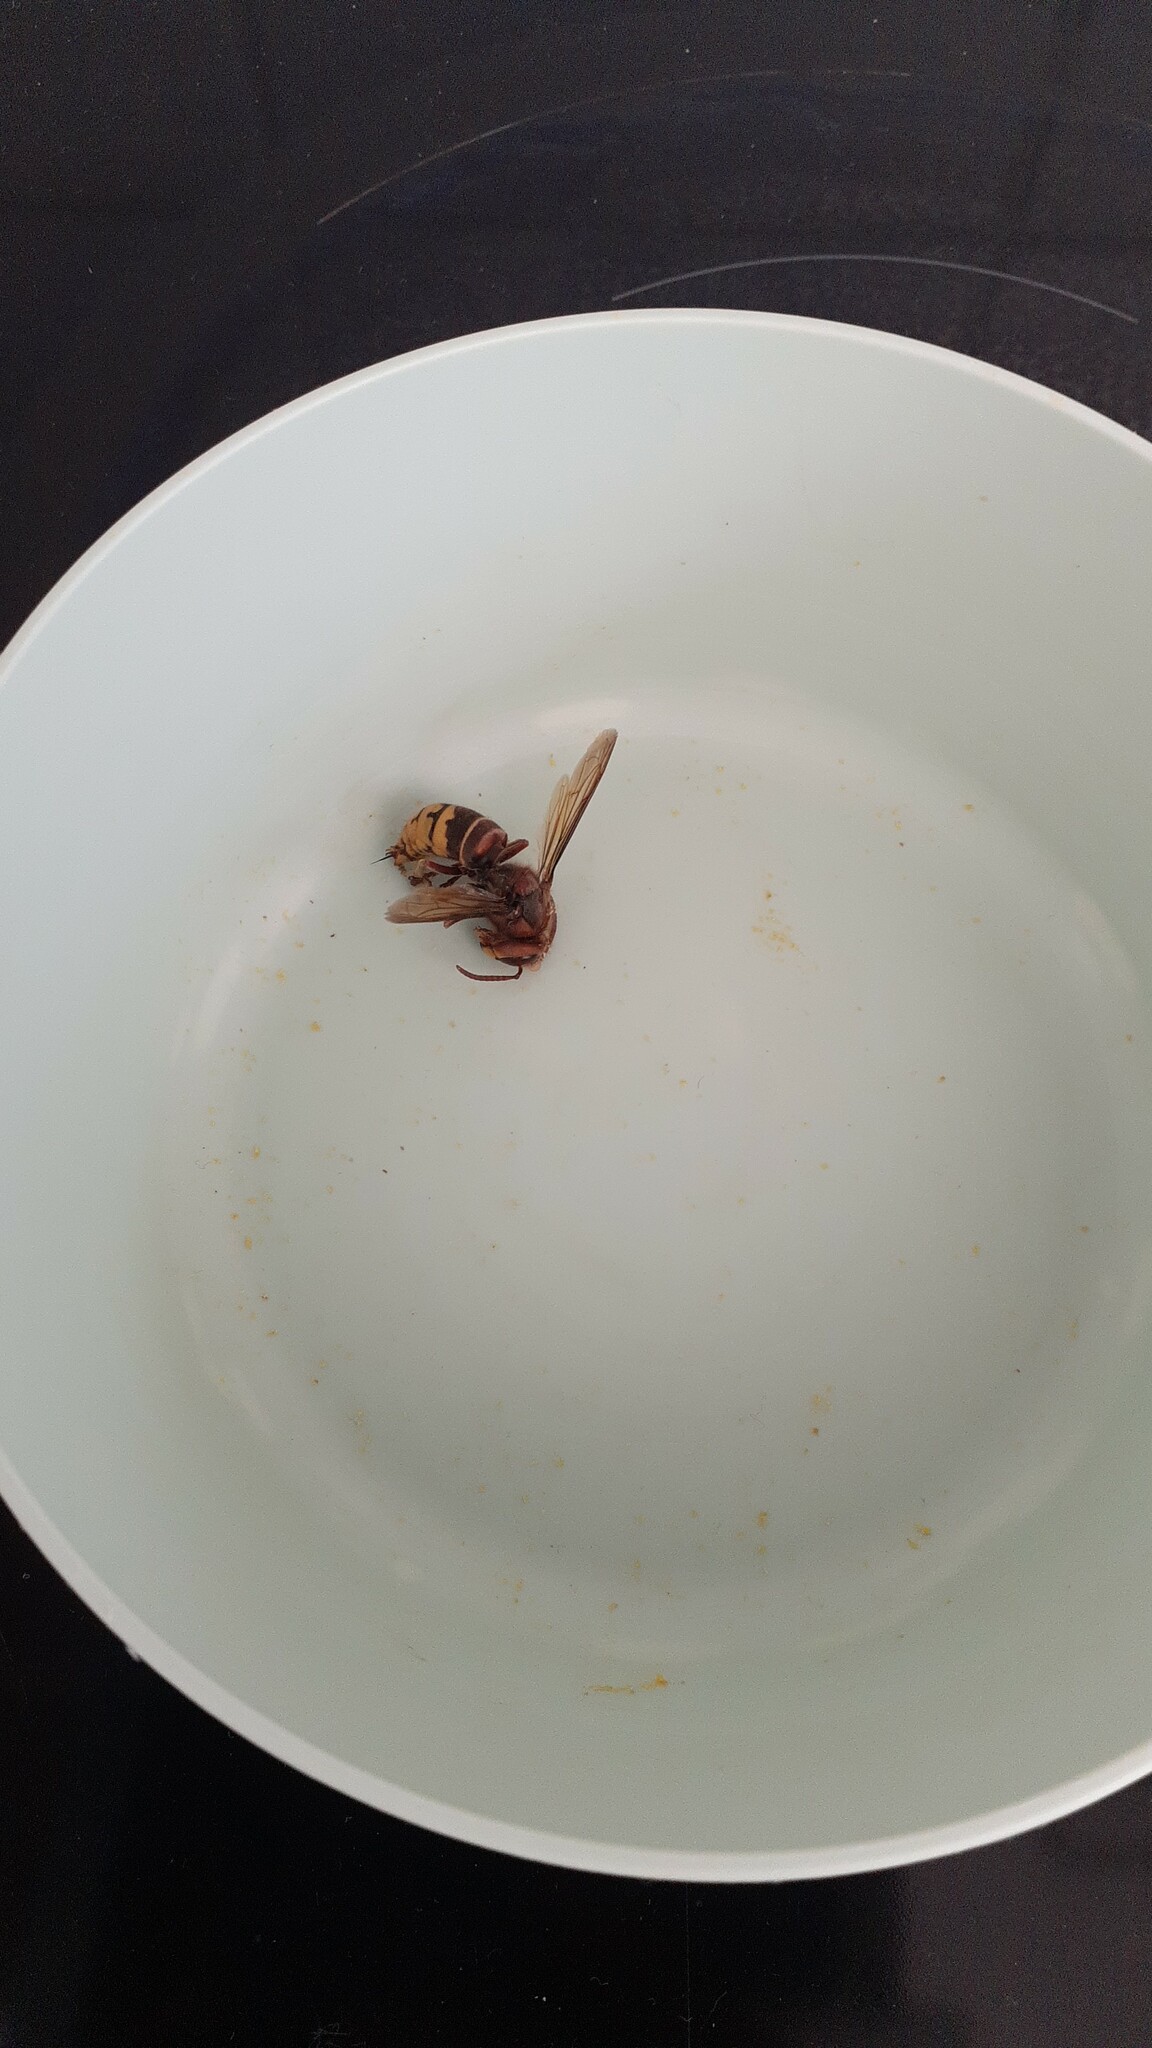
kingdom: Animalia
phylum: Arthropoda
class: Insecta
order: Hymenoptera
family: Vespidae
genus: Vespa
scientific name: Vespa crabro
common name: Hornet
